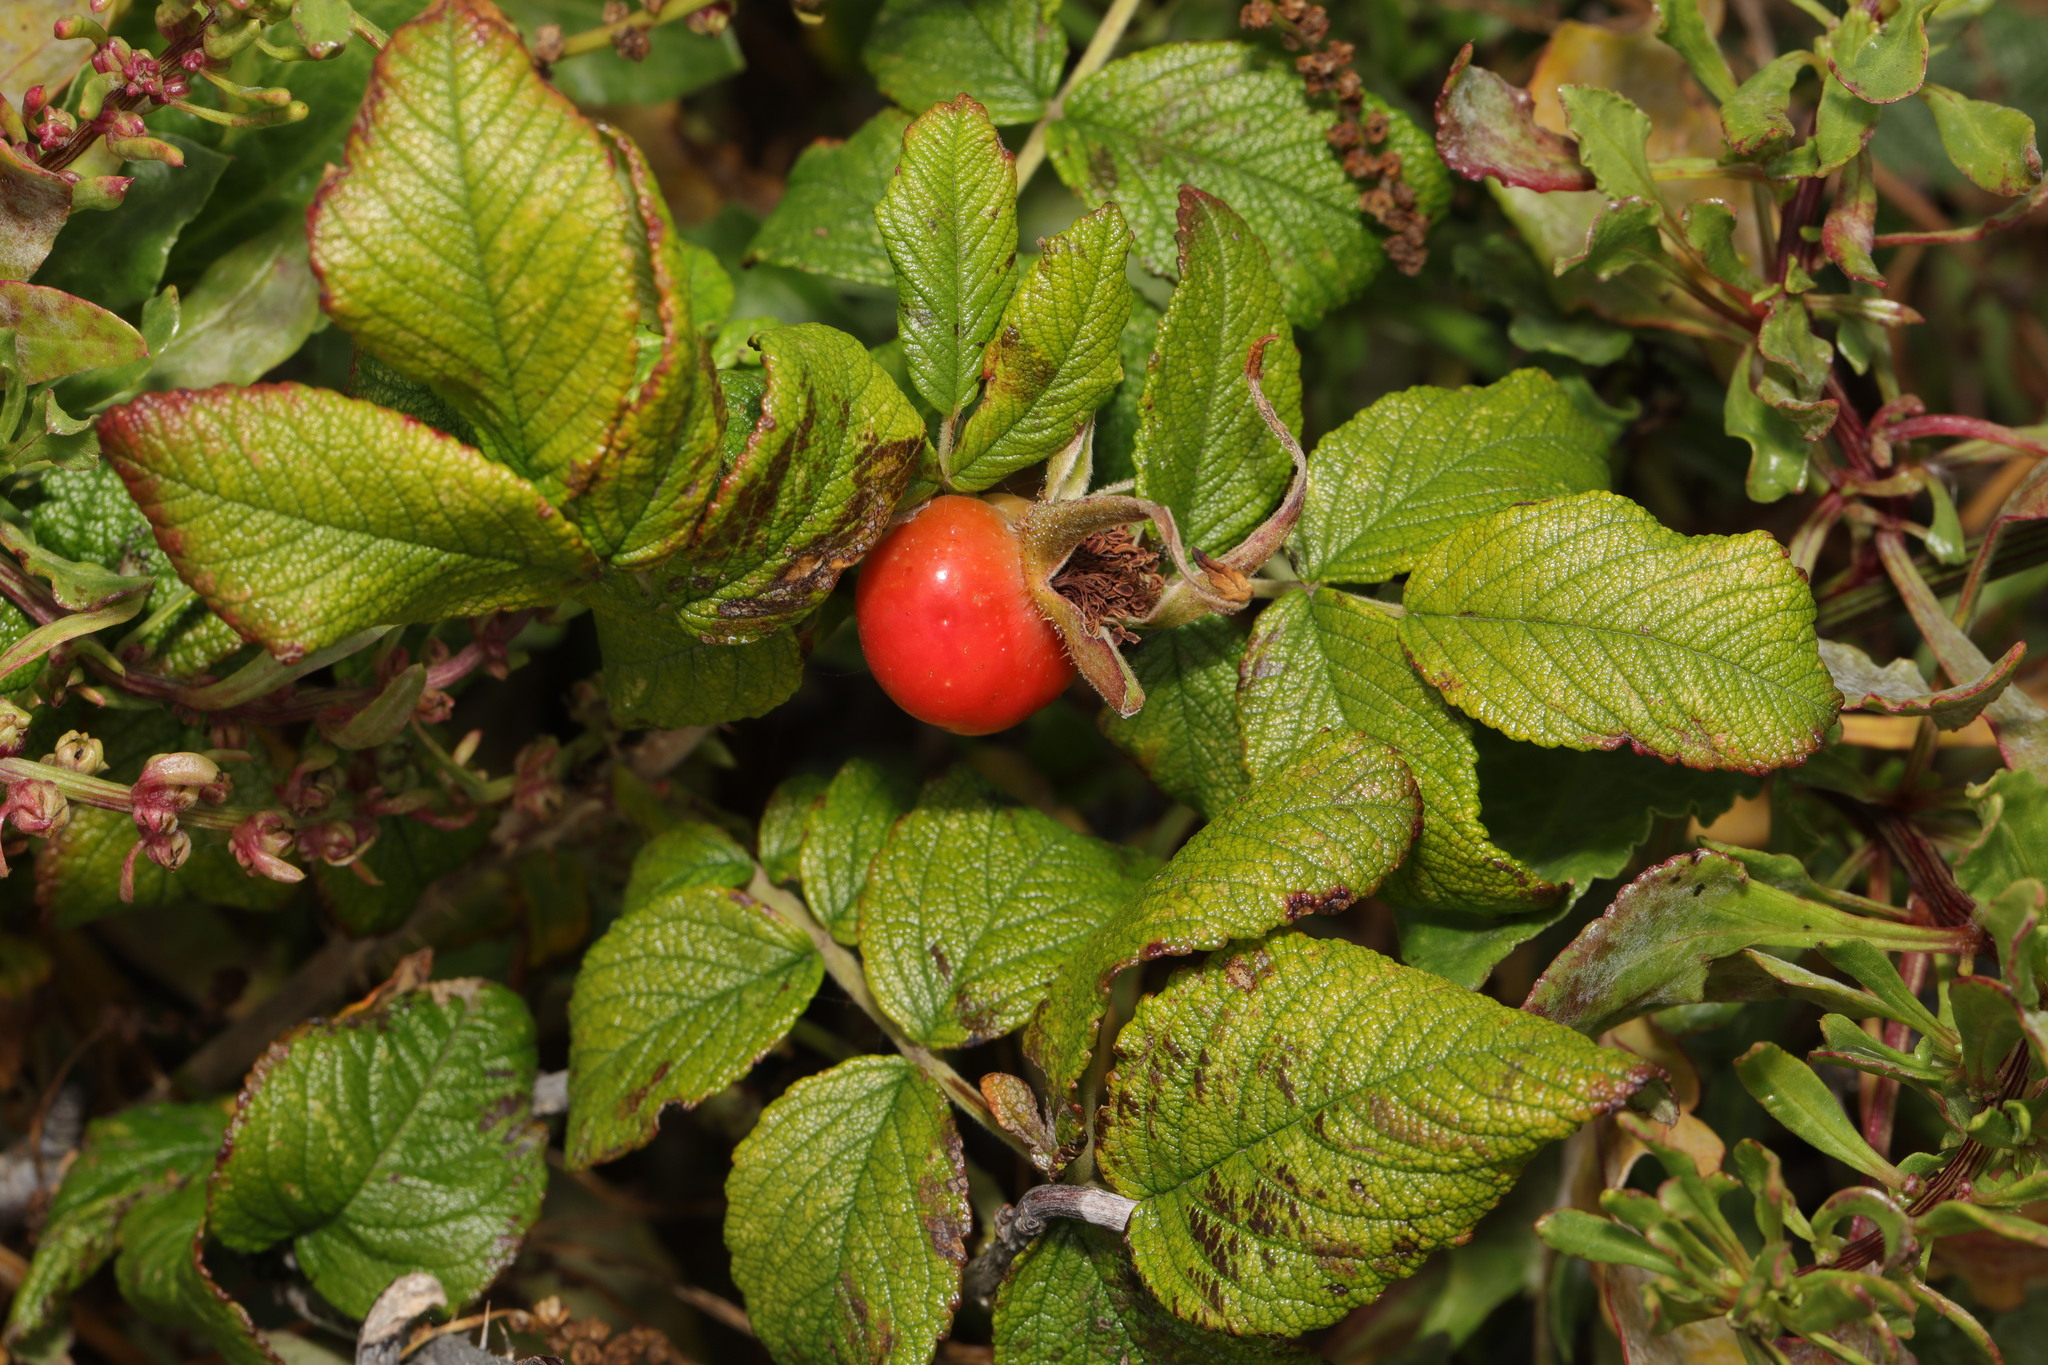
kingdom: Plantae
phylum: Tracheophyta
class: Magnoliopsida
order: Rosales
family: Rosaceae
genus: Rosa
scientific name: Rosa rugosa
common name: Japanese rose
